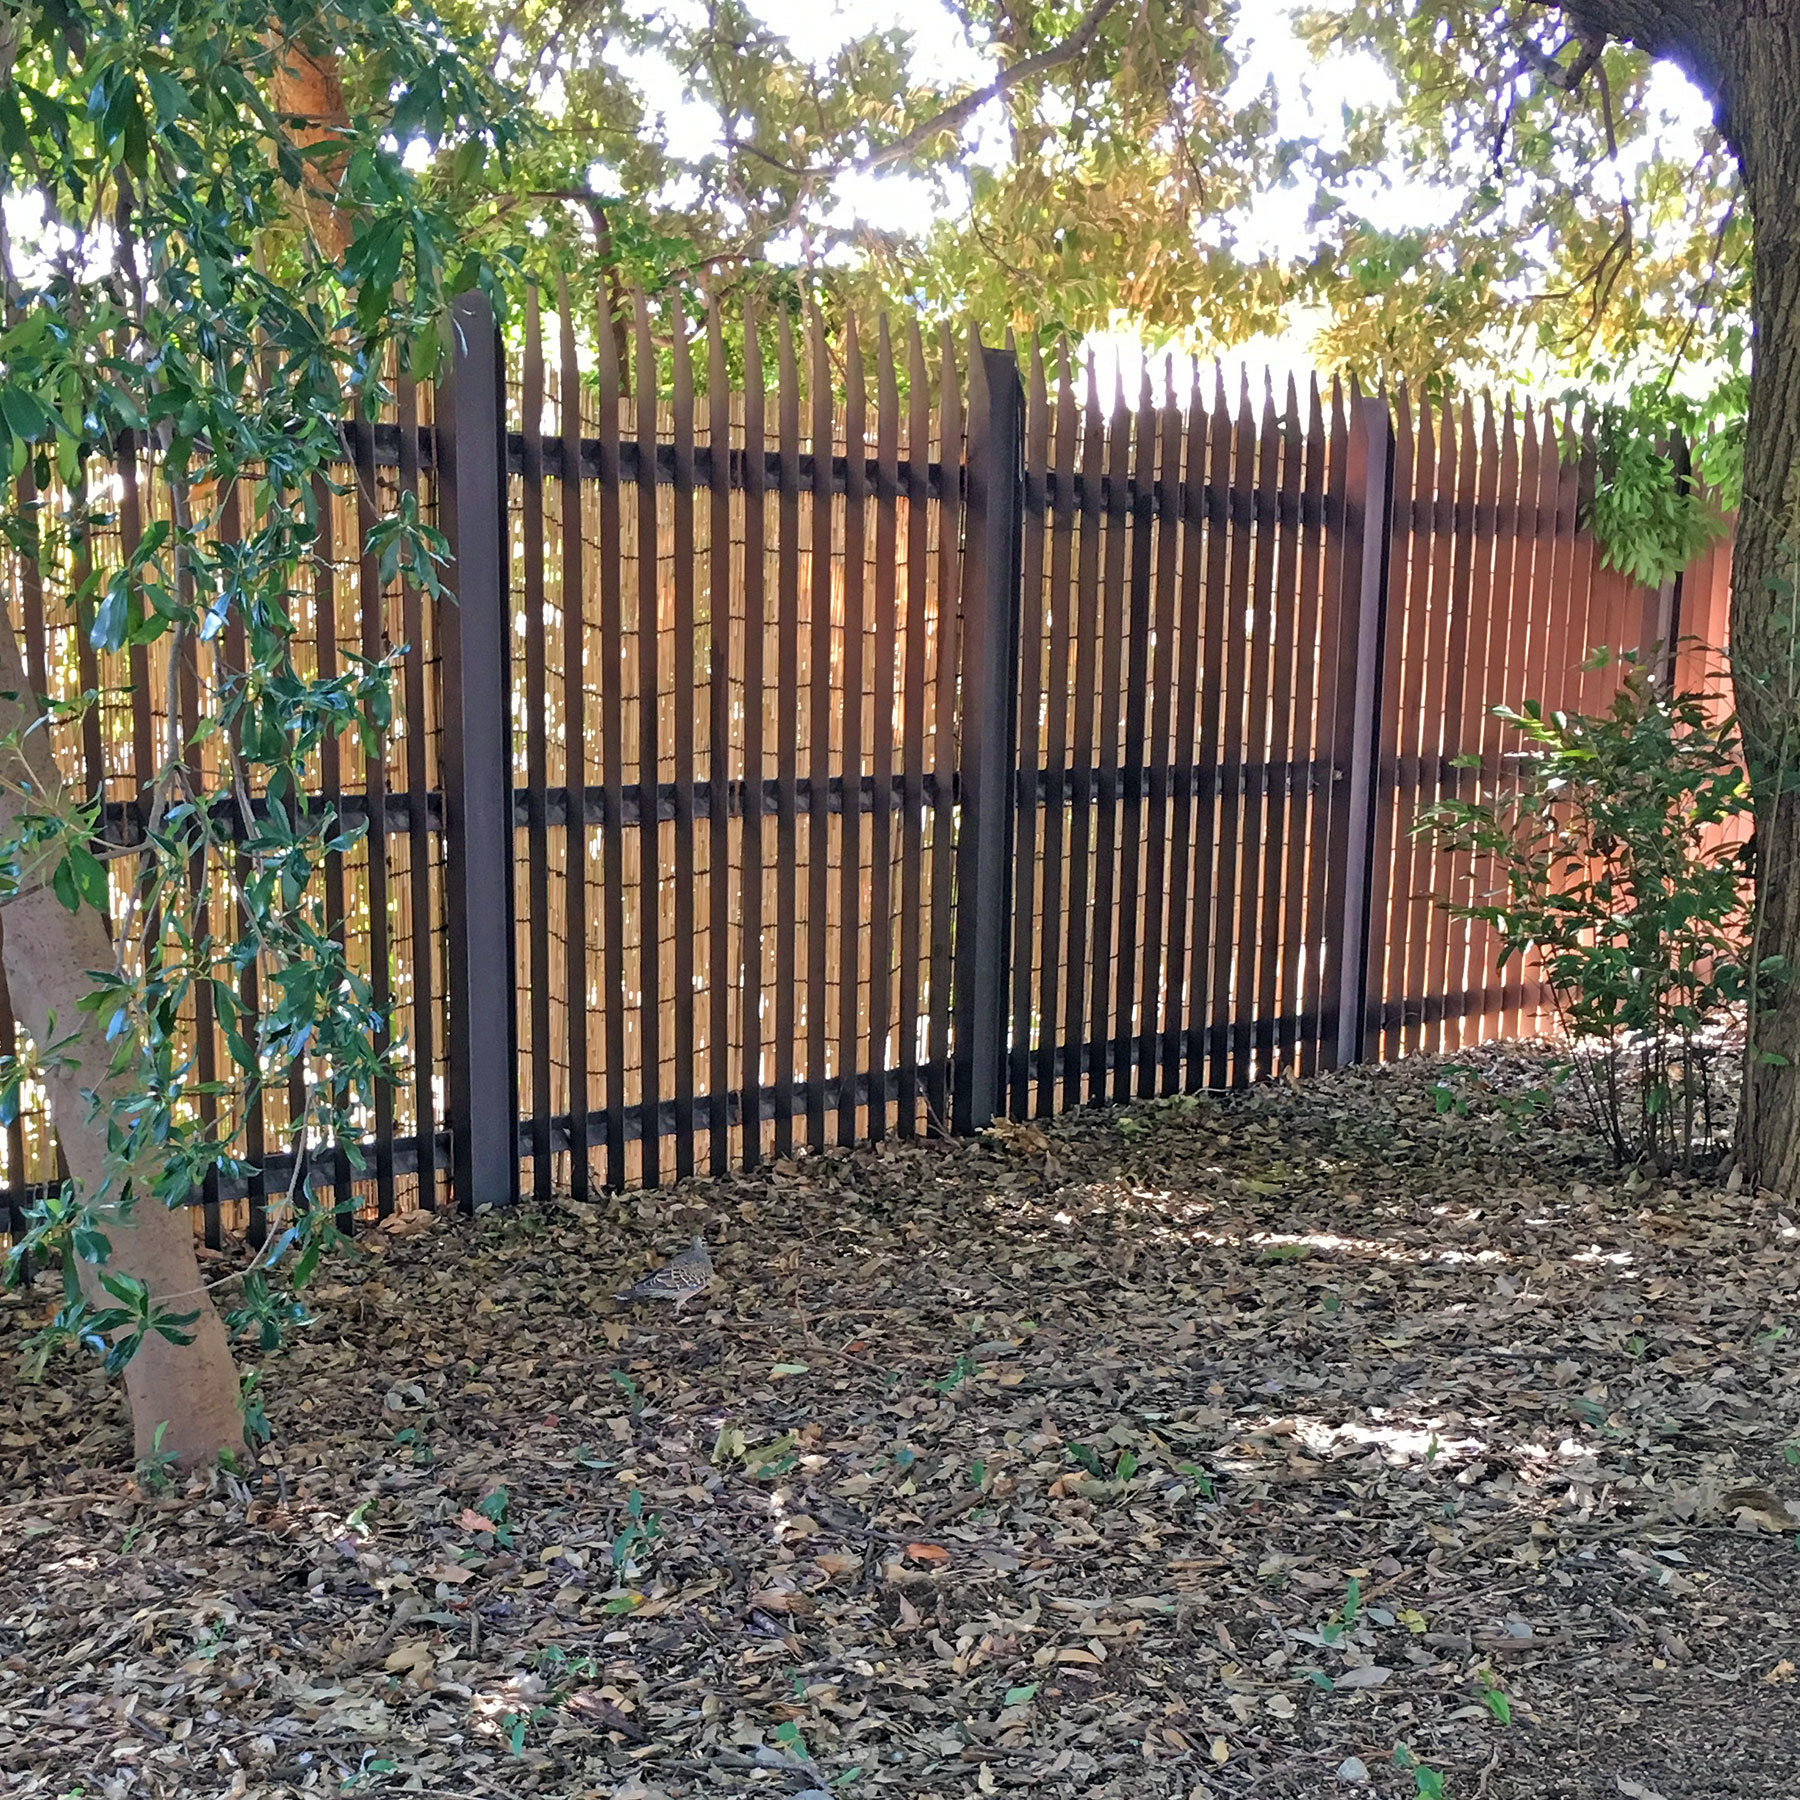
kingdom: Animalia
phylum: Chordata
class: Aves
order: Columbiformes
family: Columbidae
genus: Streptopelia
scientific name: Streptopelia orientalis
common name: Oriental turtle dove
